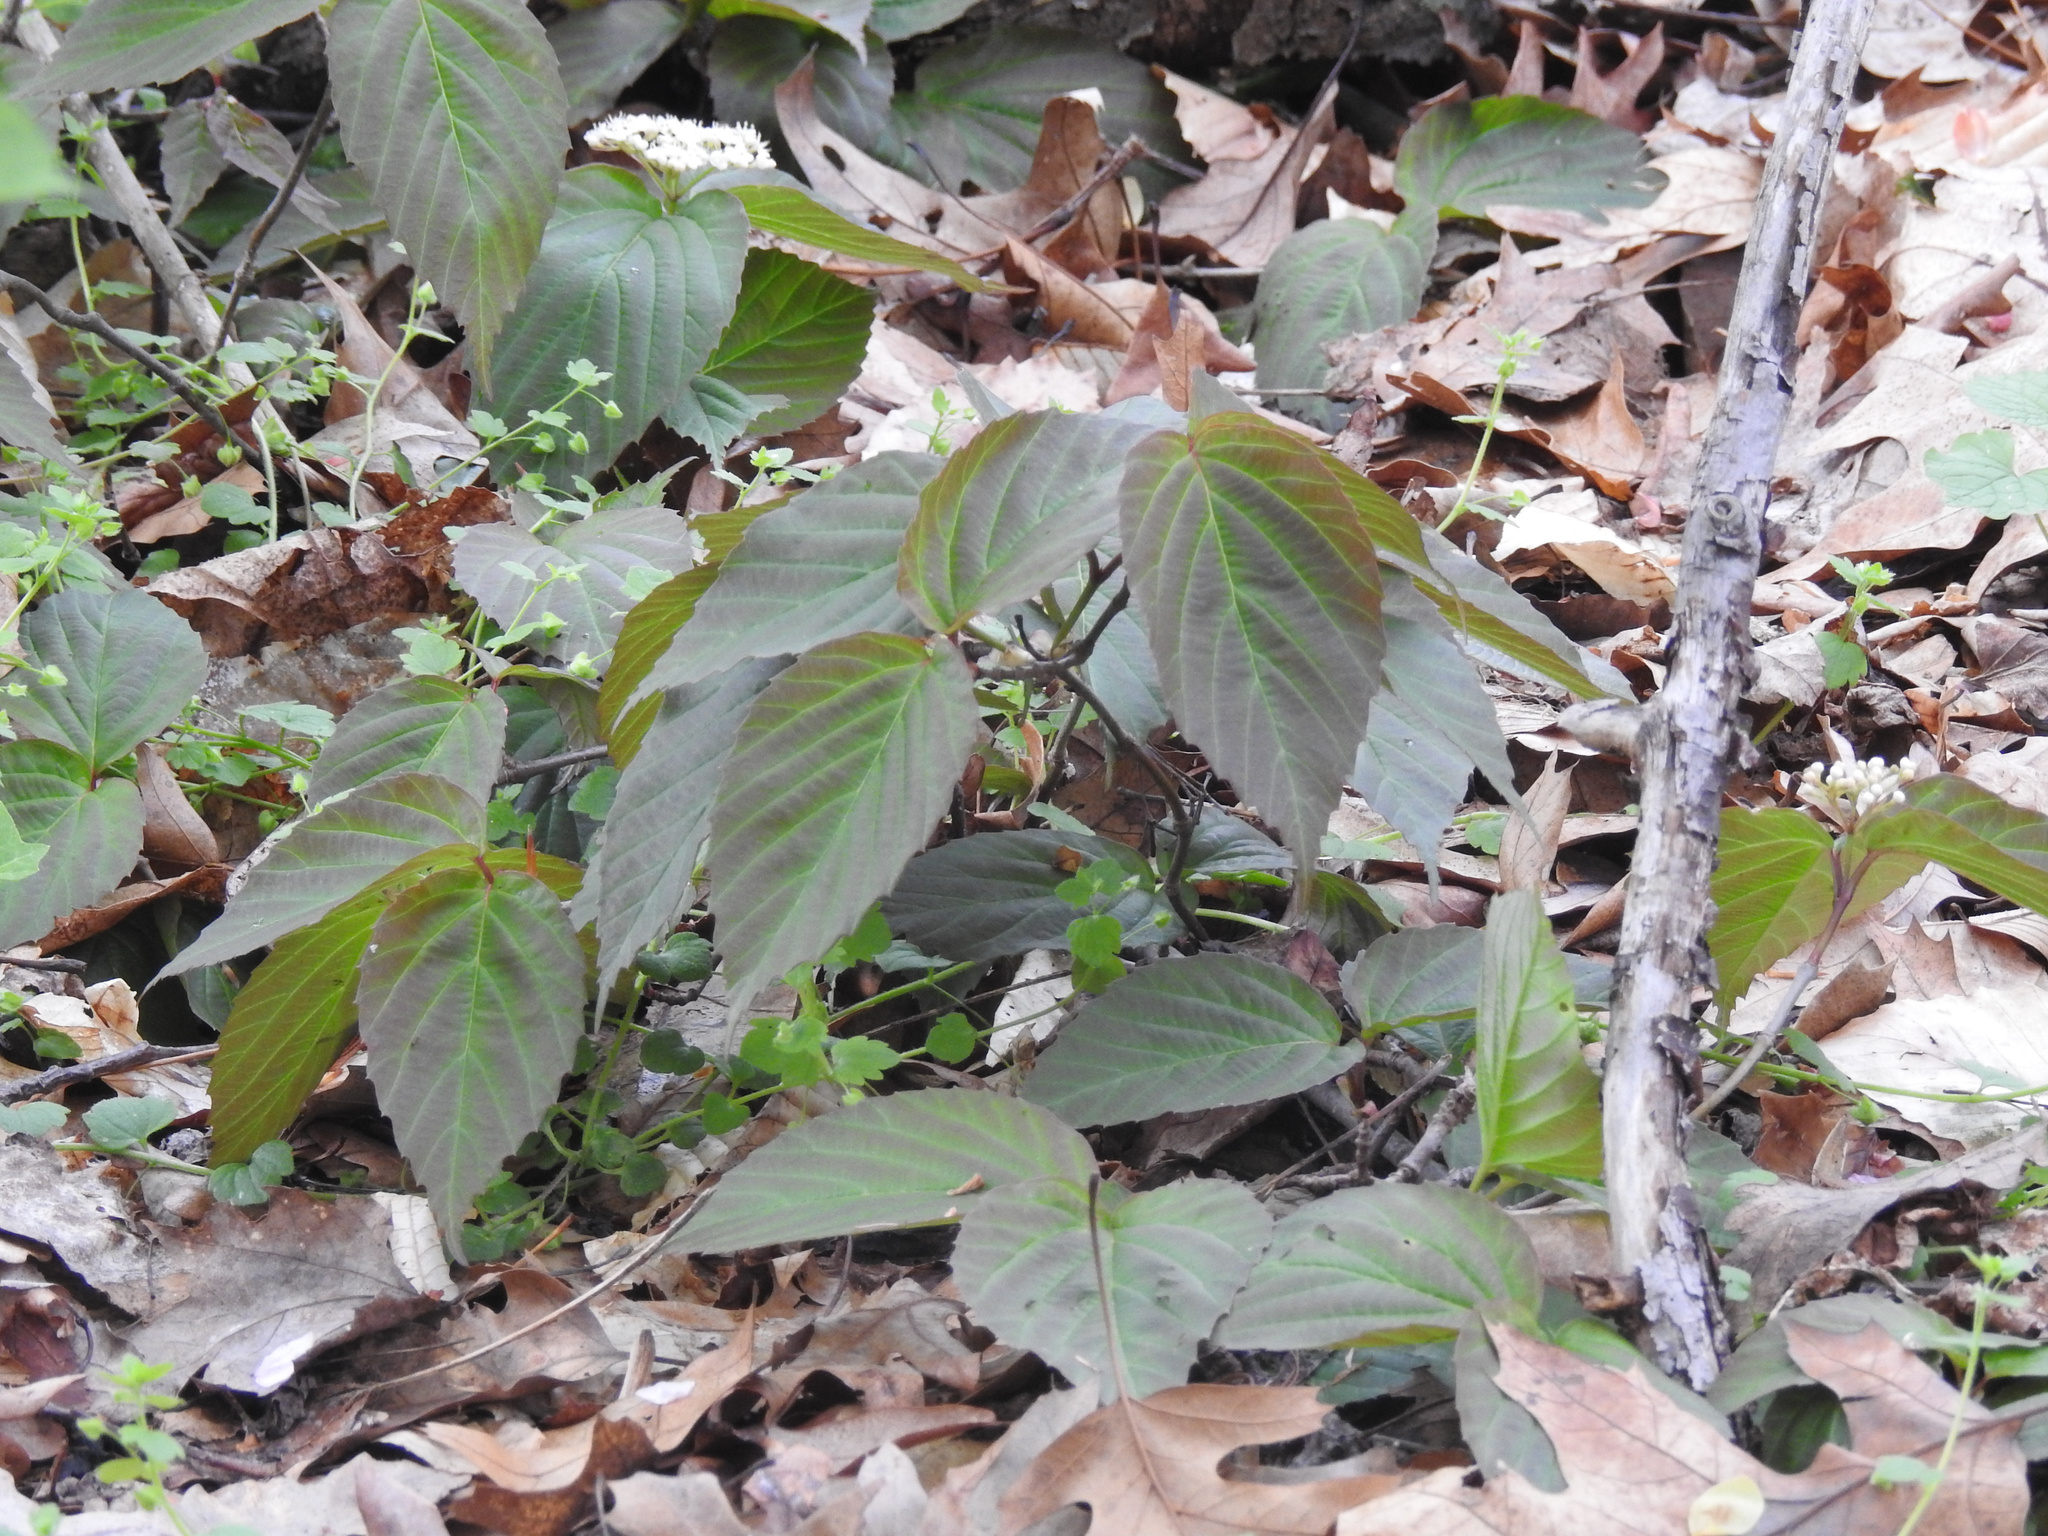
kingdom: Plantae
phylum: Tracheophyta
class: Magnoliopsida
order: Dipsacales
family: Viburnaceae
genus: Viburnum
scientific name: Viburnum setigerum
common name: Tea viburnum
